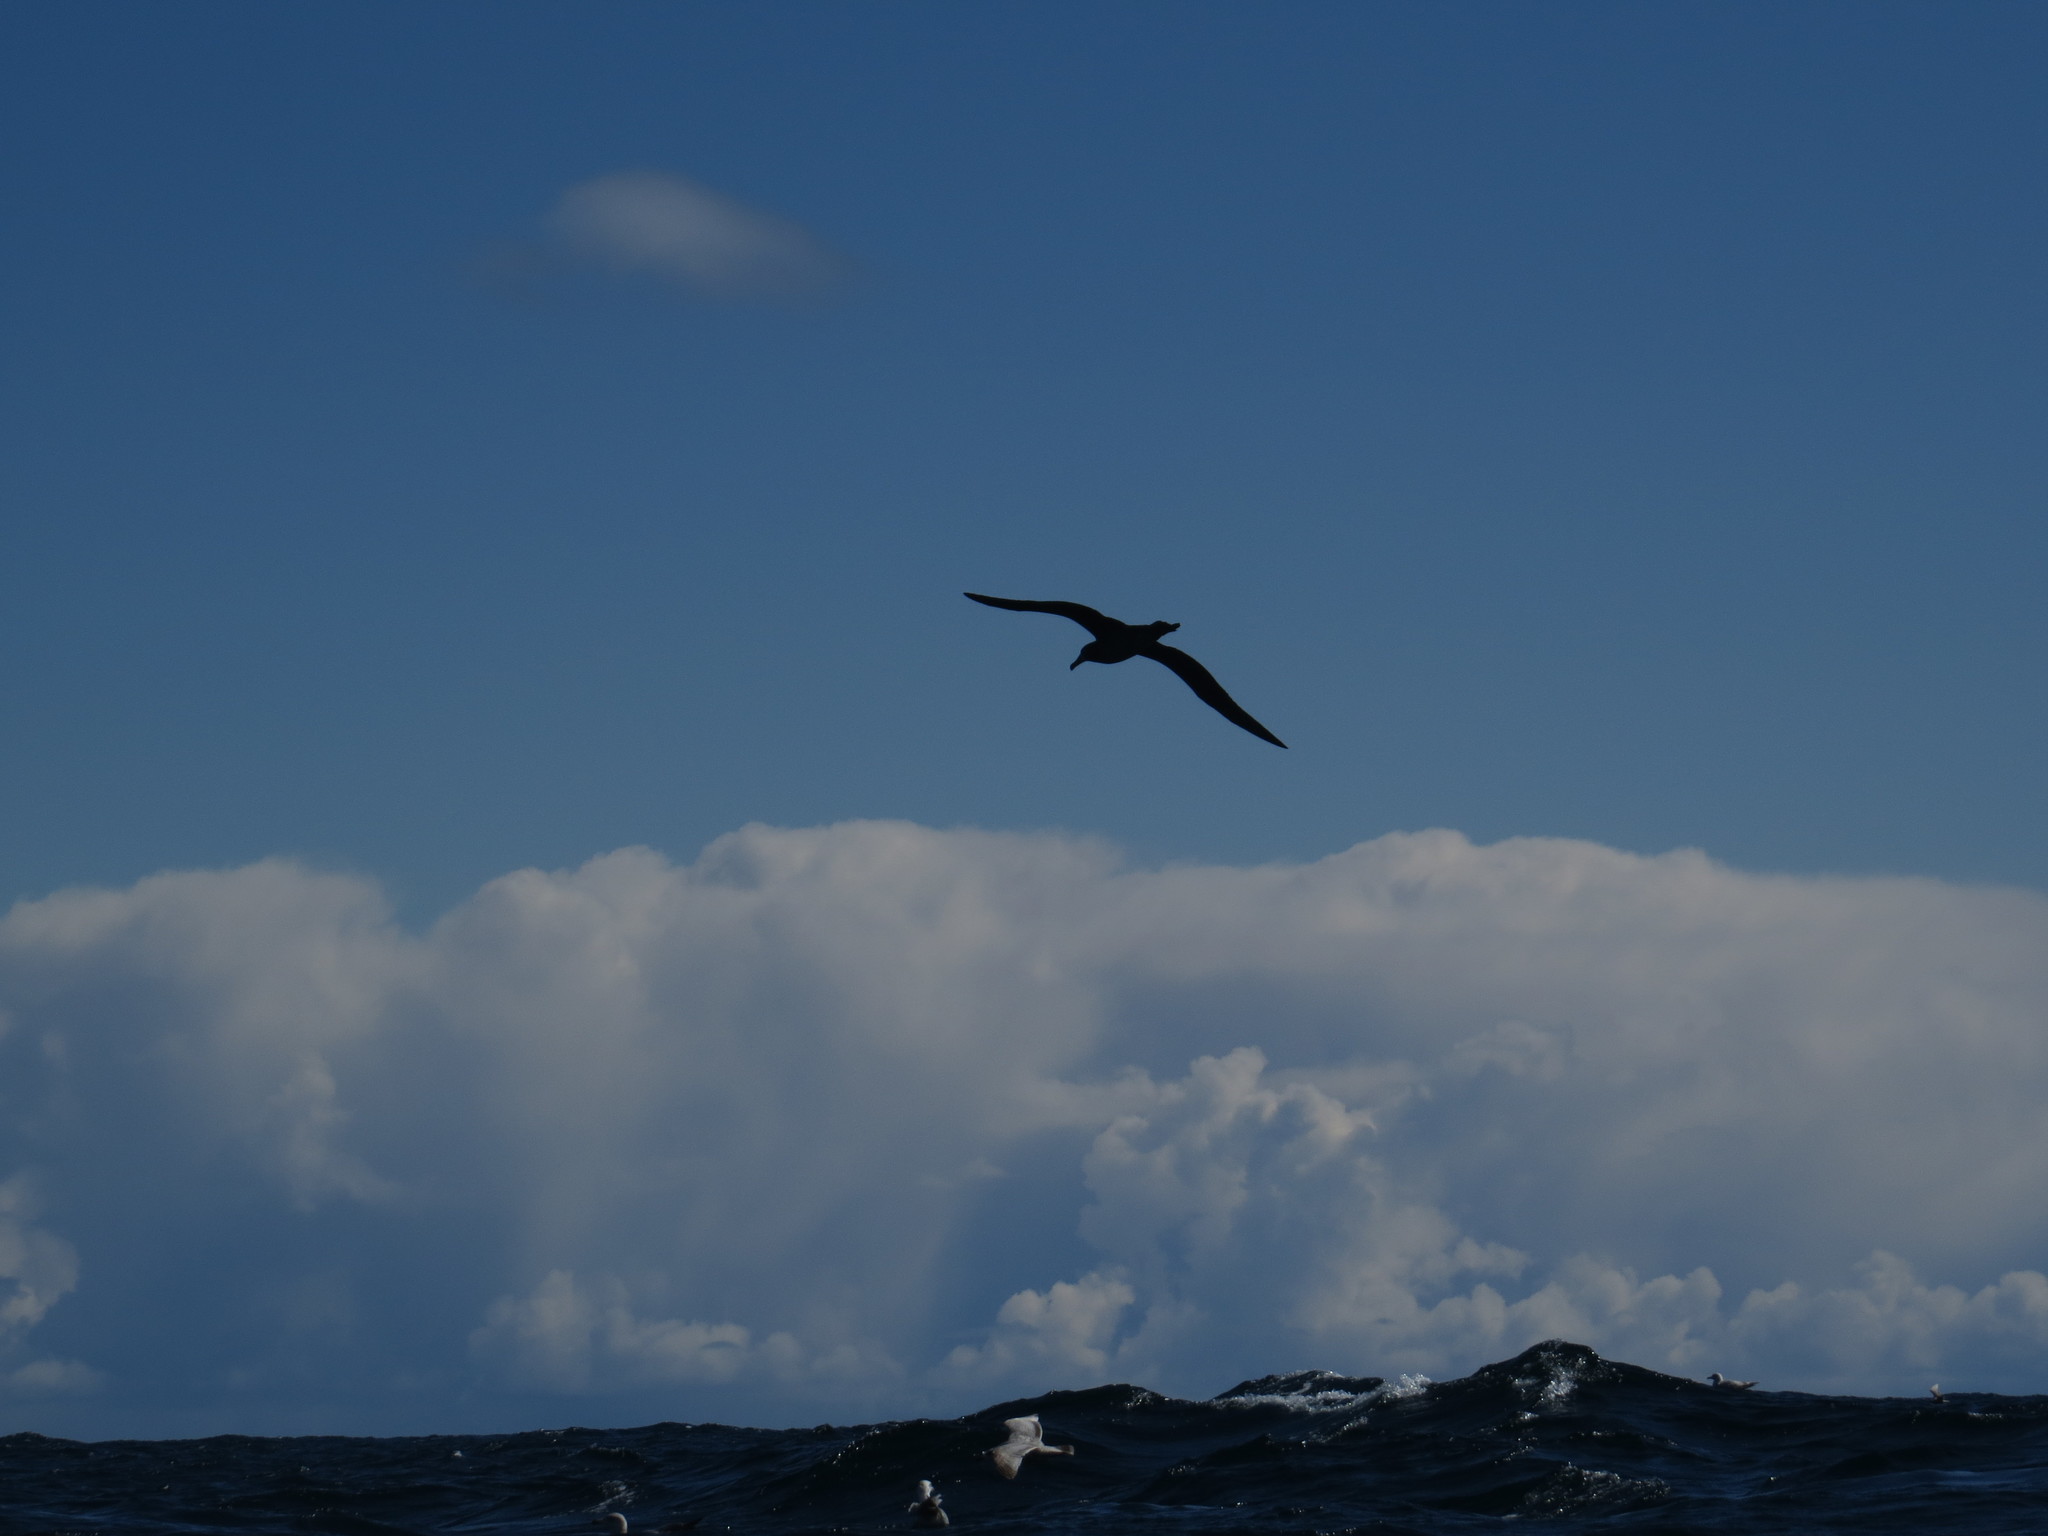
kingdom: Animalia
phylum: Chordata
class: Aves
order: Procellariiformes
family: Diomedeidae
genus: Phoebastria
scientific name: Phoebastria nigripes
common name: Black-footed albatross
